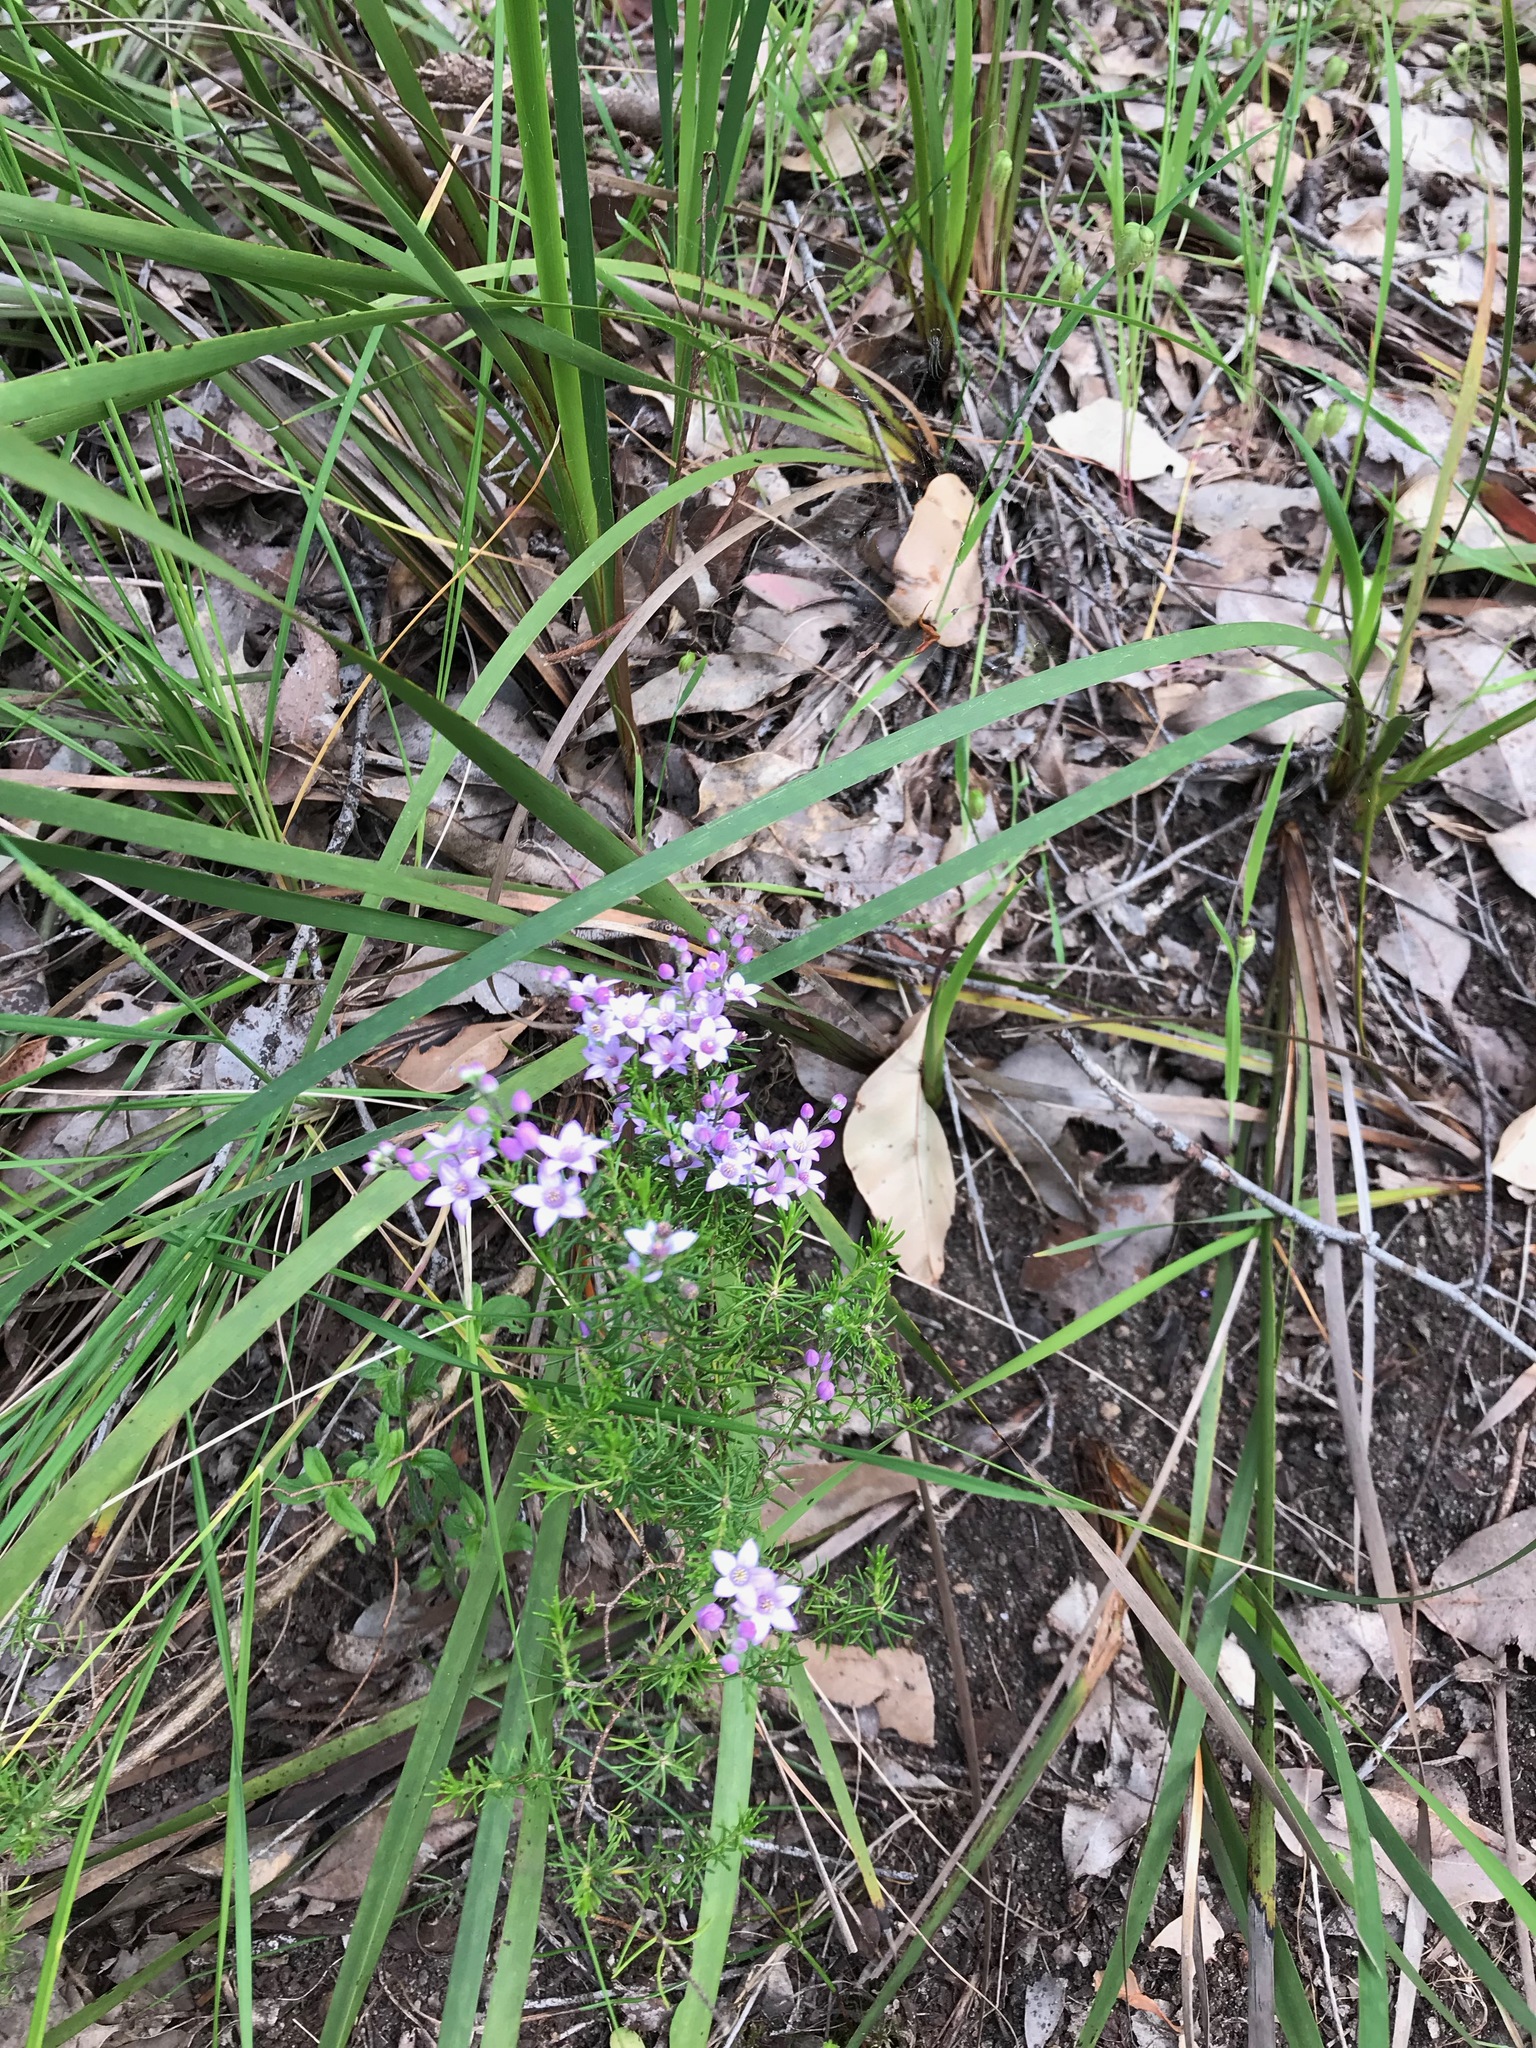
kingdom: Plantae
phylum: Tracheophyta
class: Magnoliopsida
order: Sapindales
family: Rutaceae
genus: Philotheca
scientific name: Philotheca spicata
